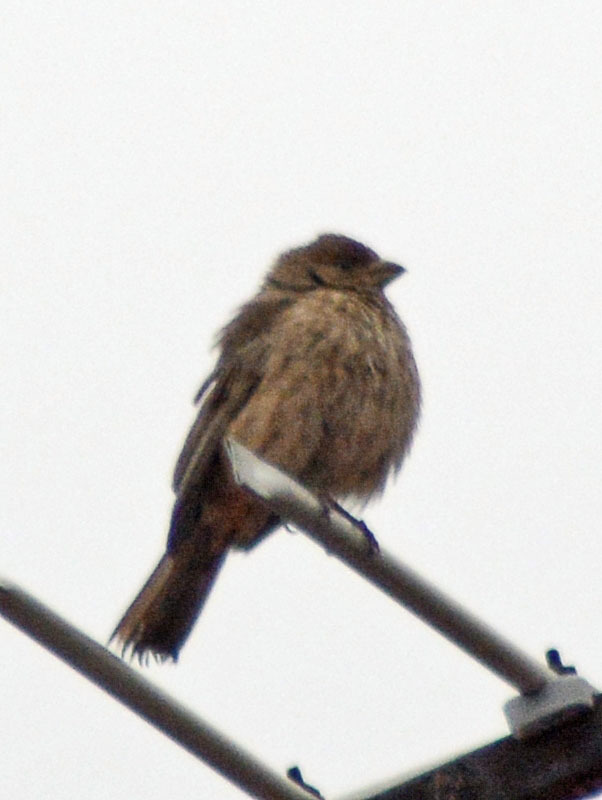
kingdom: Animalia
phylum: Chordata
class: Aves
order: Passeriformes
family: Fringillidae
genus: Haemorhous
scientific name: Haemorhous mexicanus
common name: House finch
